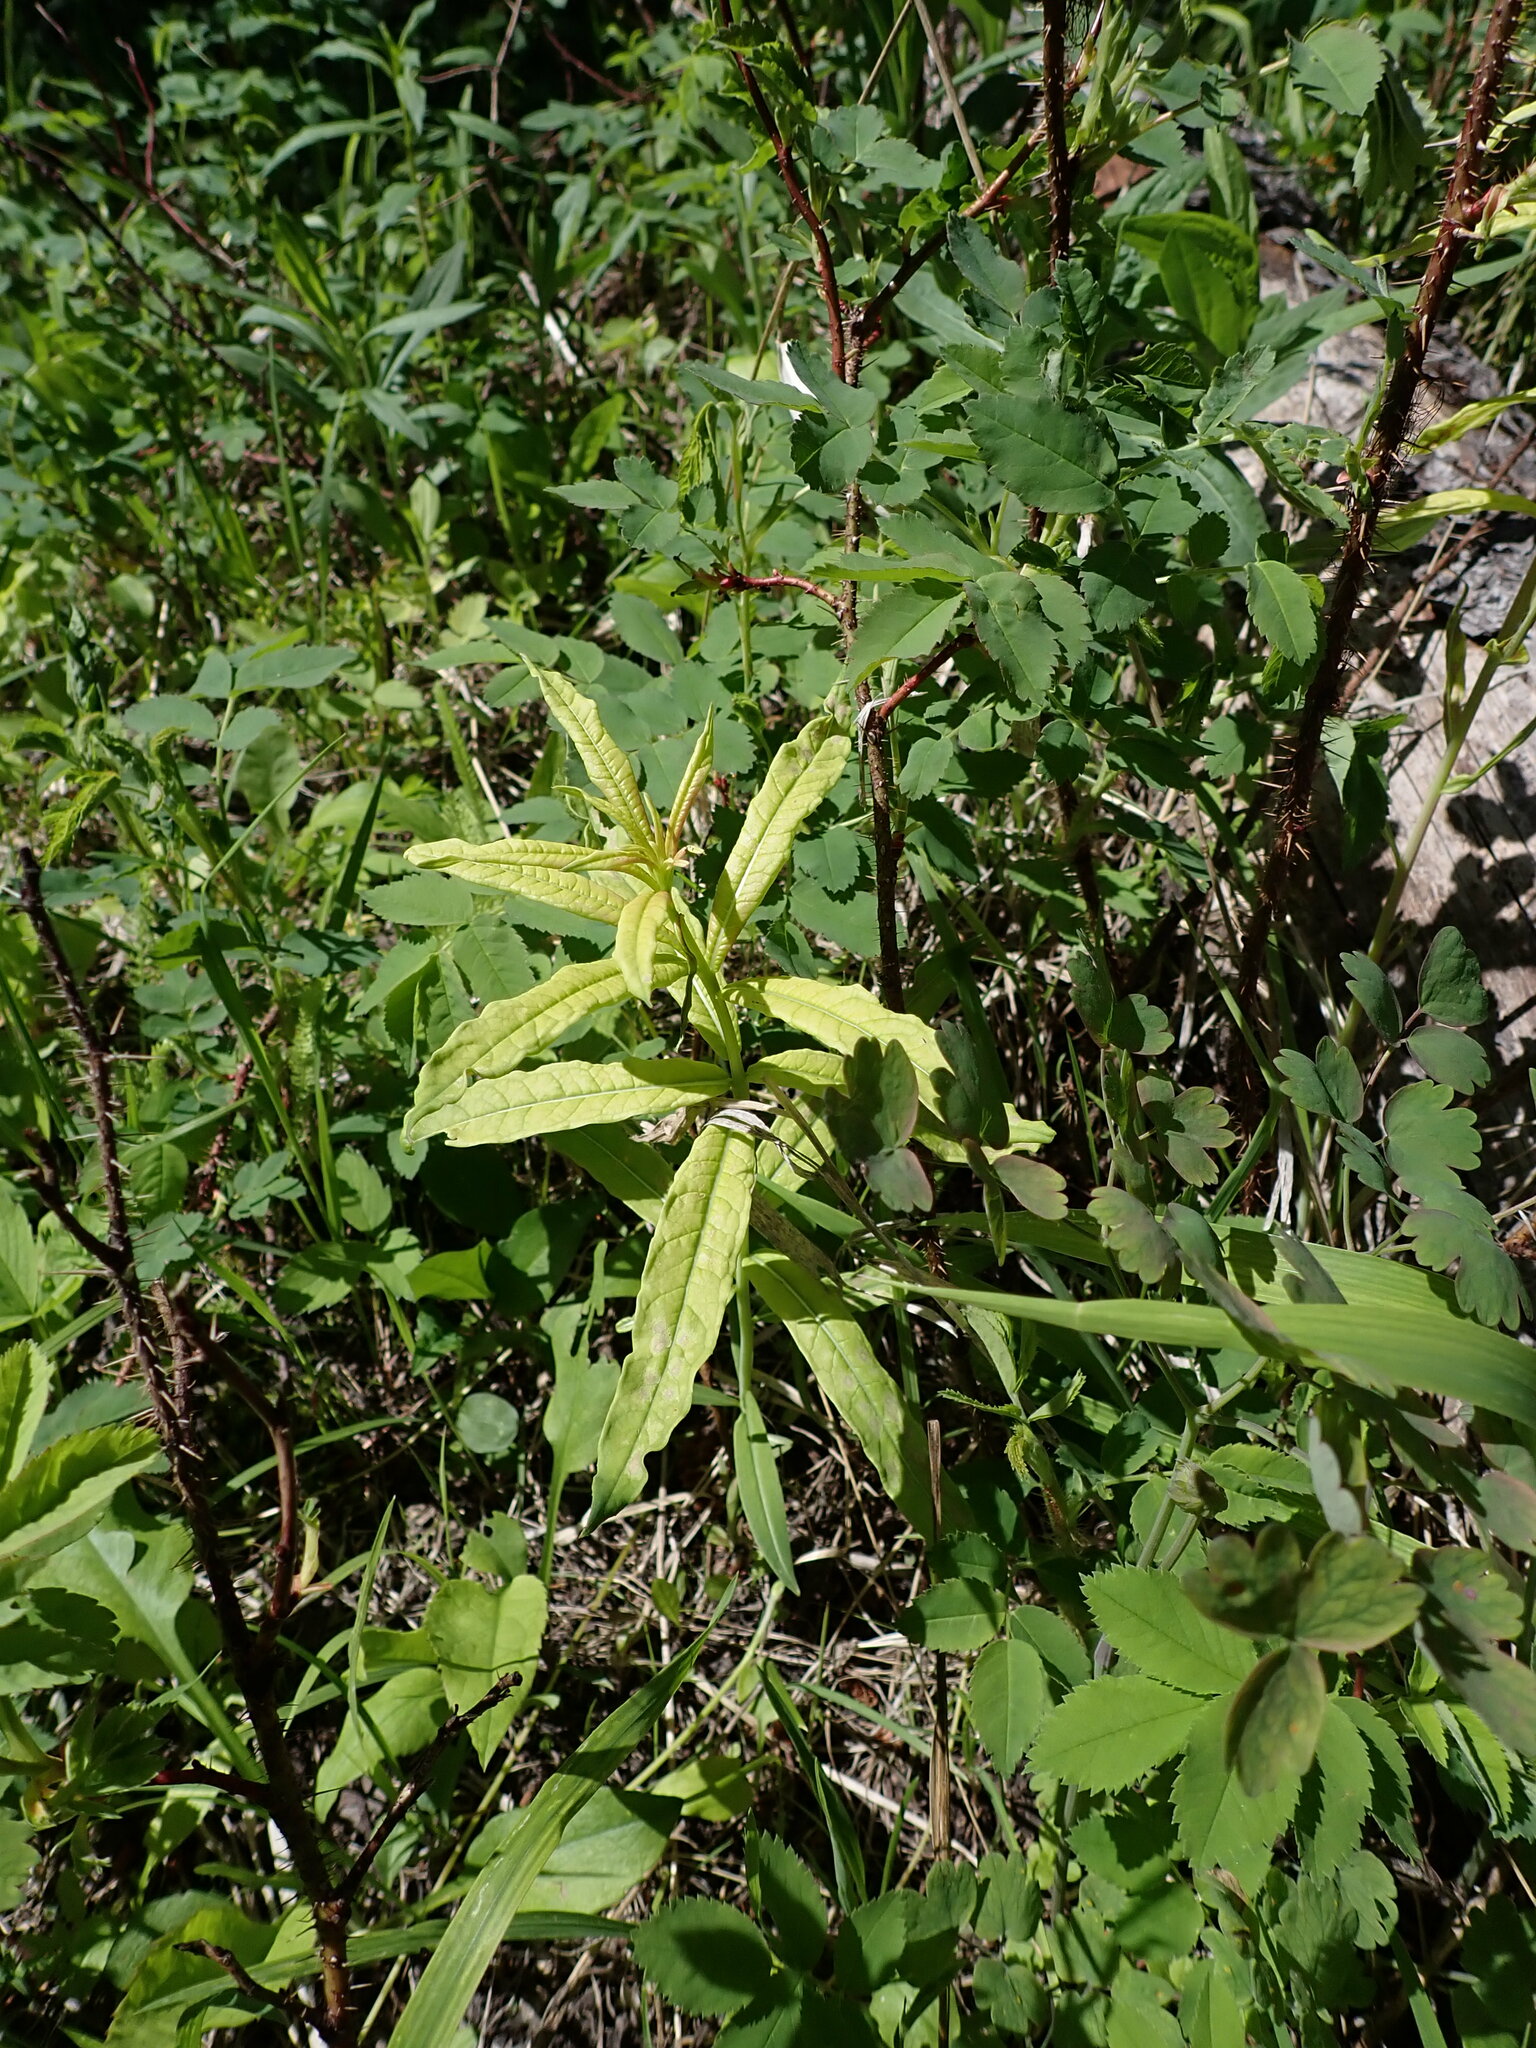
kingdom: Plantae
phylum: Tracheophyta
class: Magnoliopsida
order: Myrtales
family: Onagraceae
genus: Chamaenerion
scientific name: Chamaenerion angustifolium
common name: Fireweed
